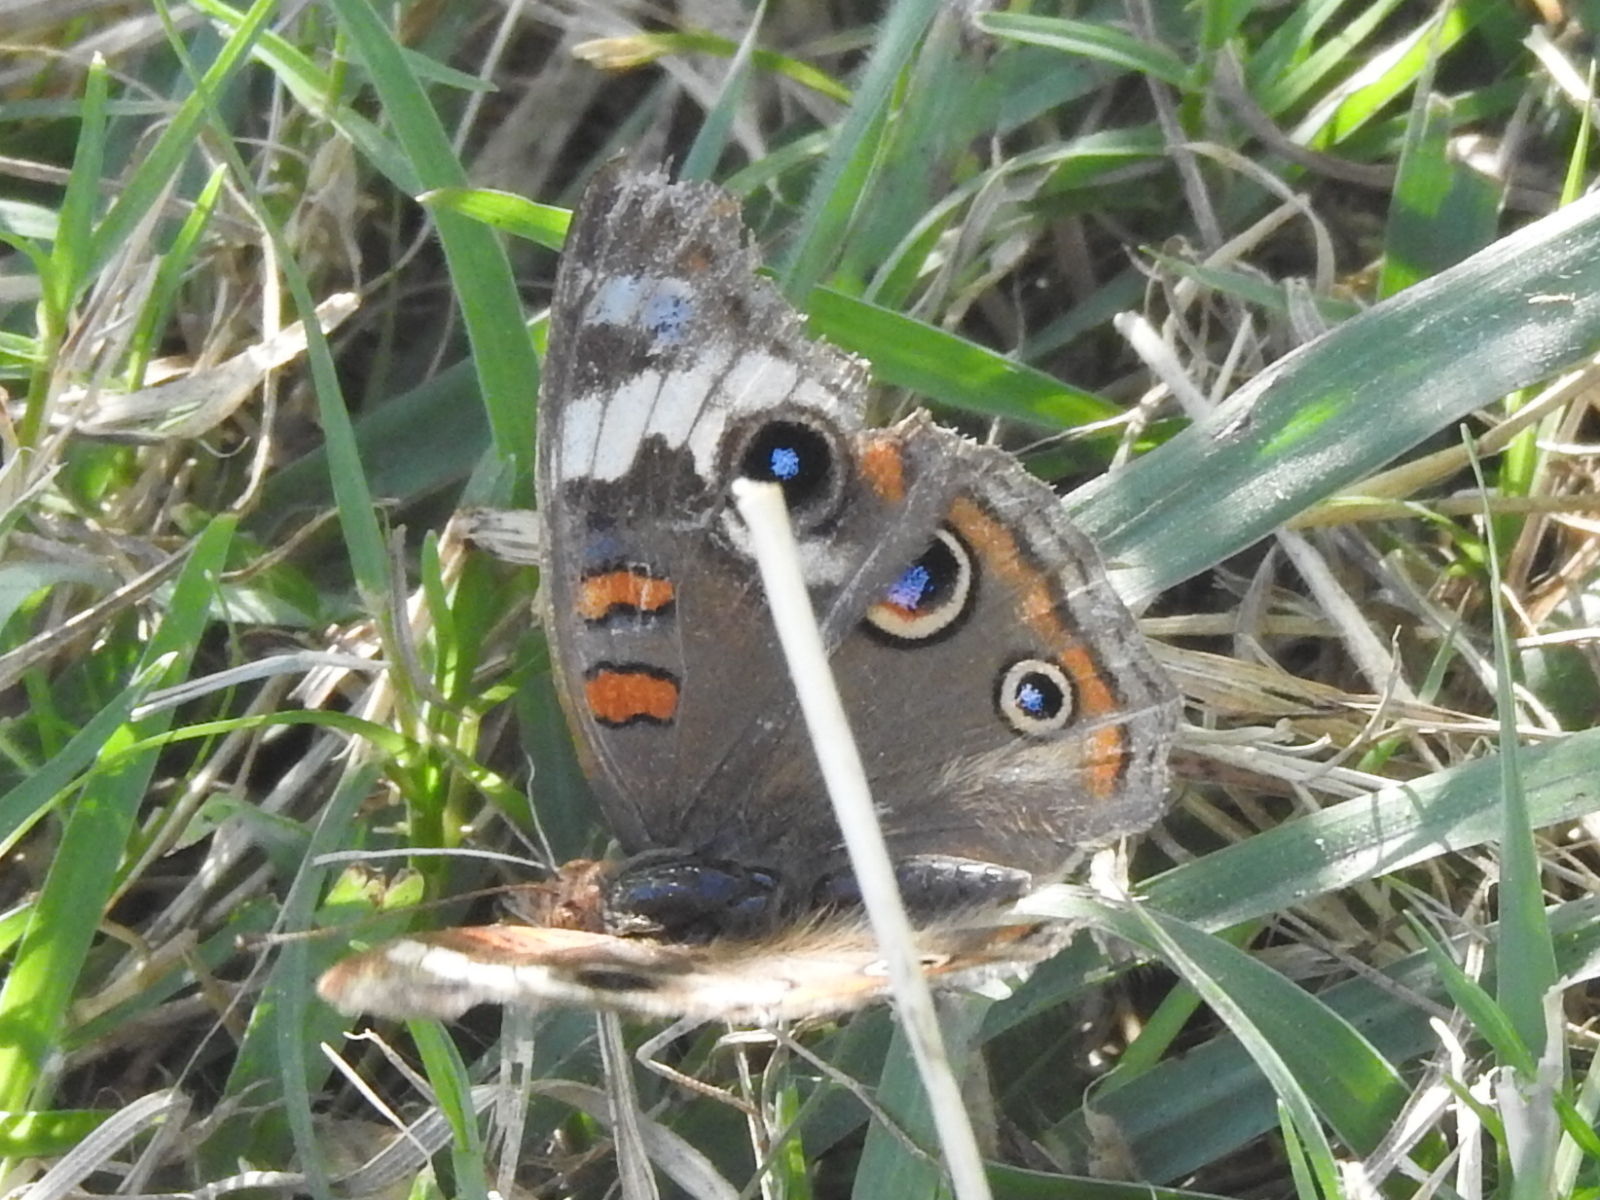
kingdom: Animalia
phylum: Arthropoda
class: Insecta
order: Lepidoptera
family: Nymphalidae
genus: Junonia
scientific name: Junonia coenia
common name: Common buckeye
